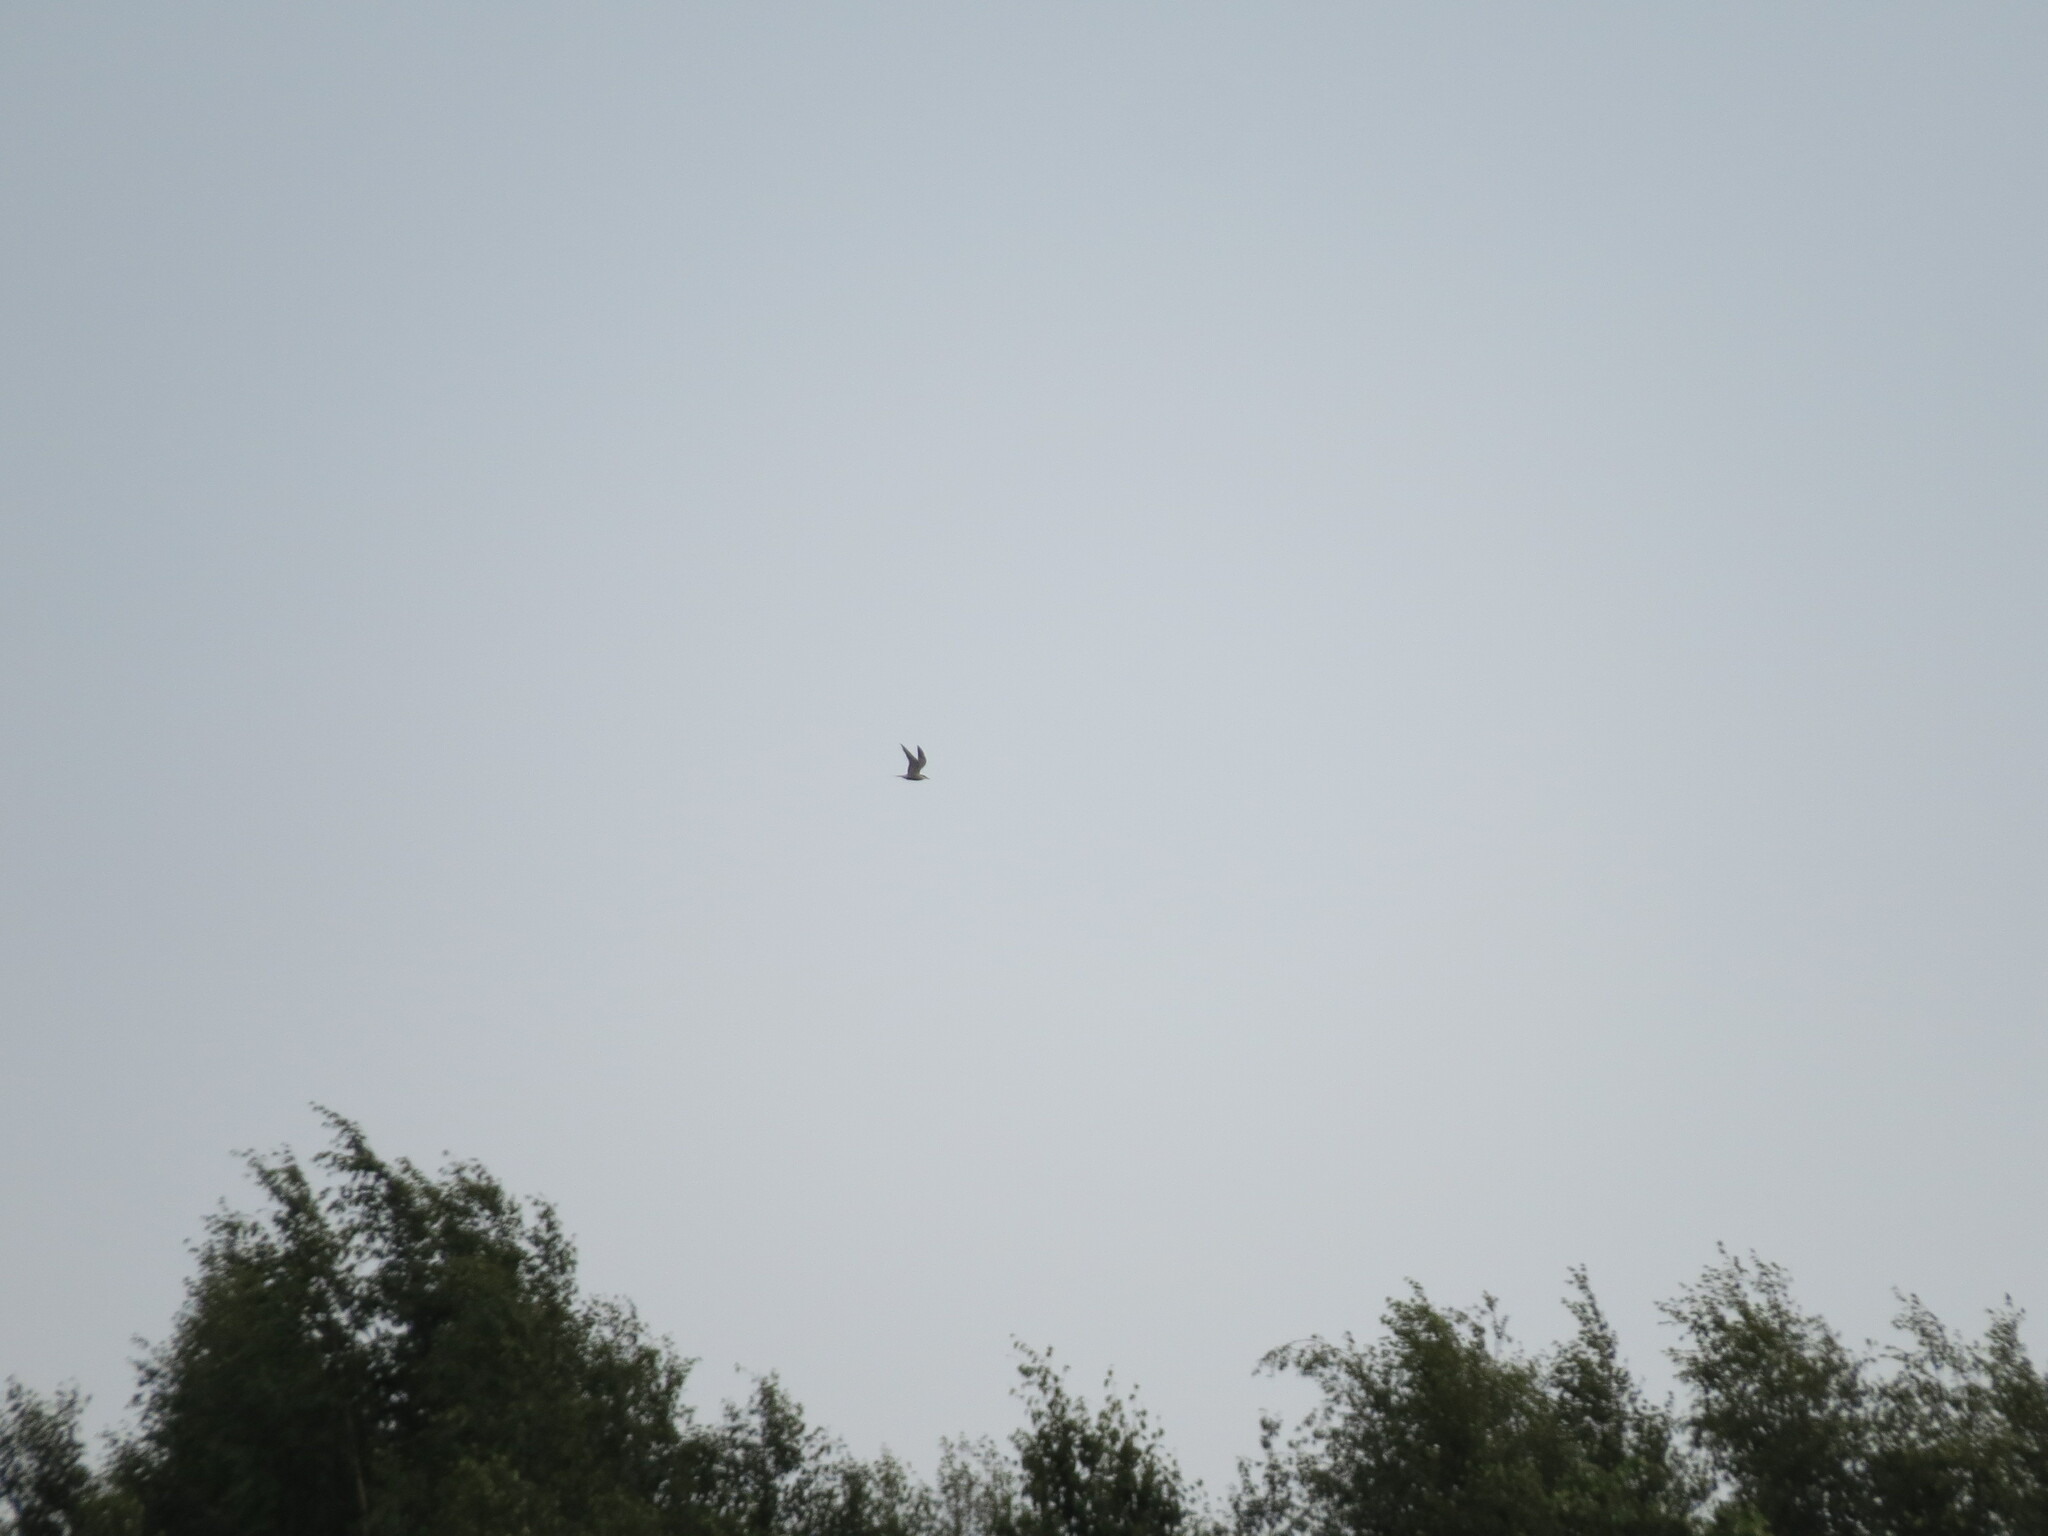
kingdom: Animalia
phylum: Chordata
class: Aves
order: Charadriiformes
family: Laridae
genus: Sterna
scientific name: Sterna hirundo
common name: Common tern
